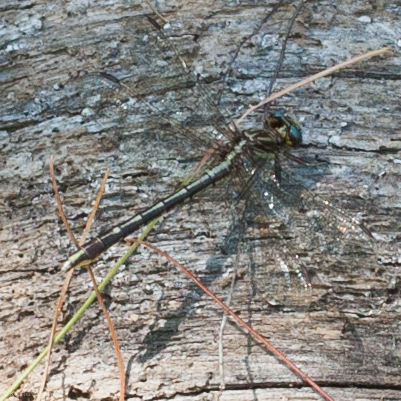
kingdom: Animalia
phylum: Arthropoda
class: Insecta
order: Odonata
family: Gomphidae
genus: Phanogomphus
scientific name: Phanogomphus exilis
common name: Lancet clubtail
